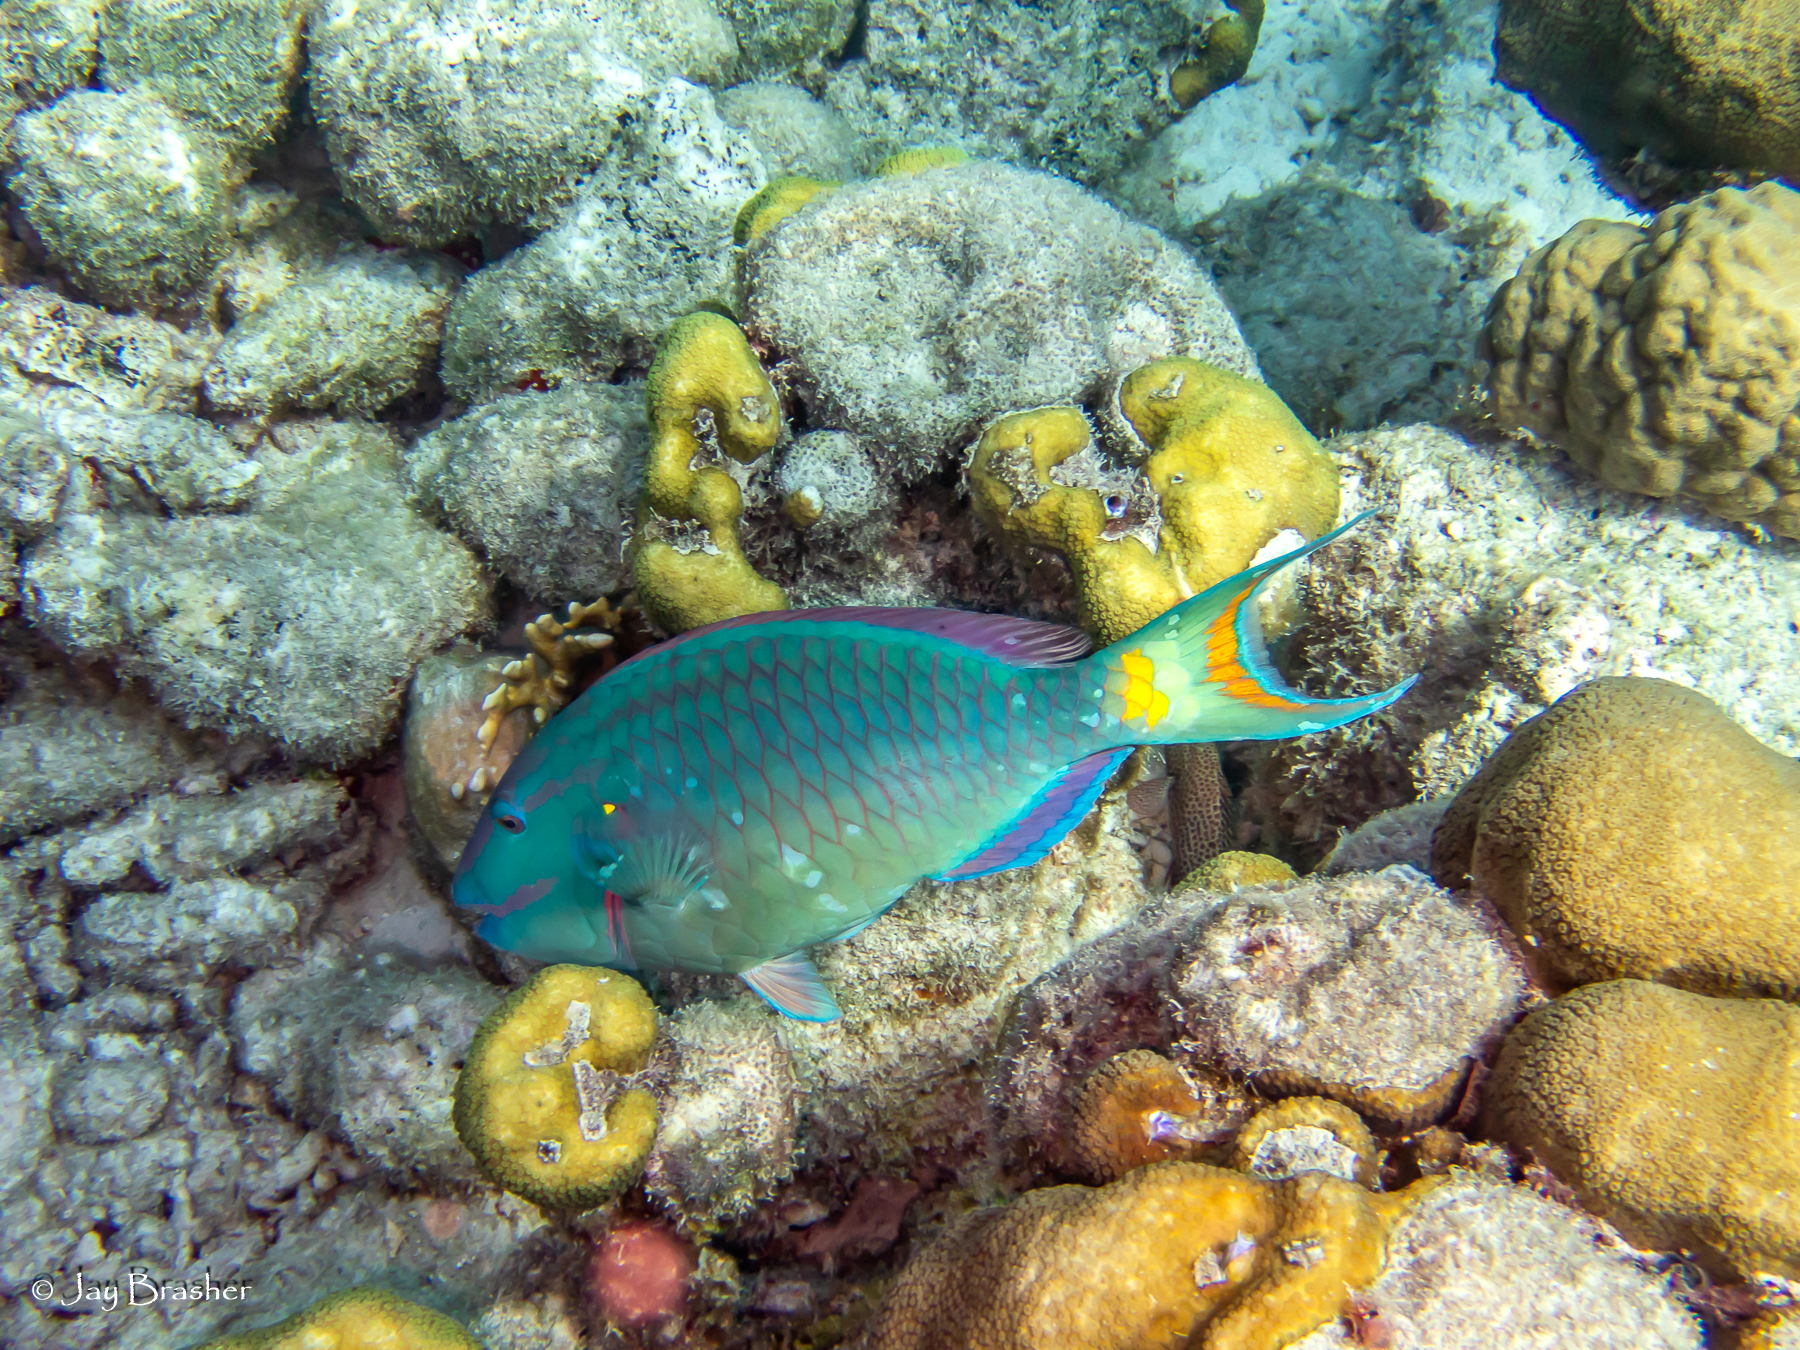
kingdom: Animalia
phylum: Cnidaria
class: Anthozoa
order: Scleractinia
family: Poritidae
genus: Porites
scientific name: Porites astreoides
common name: Mustard hill coral
